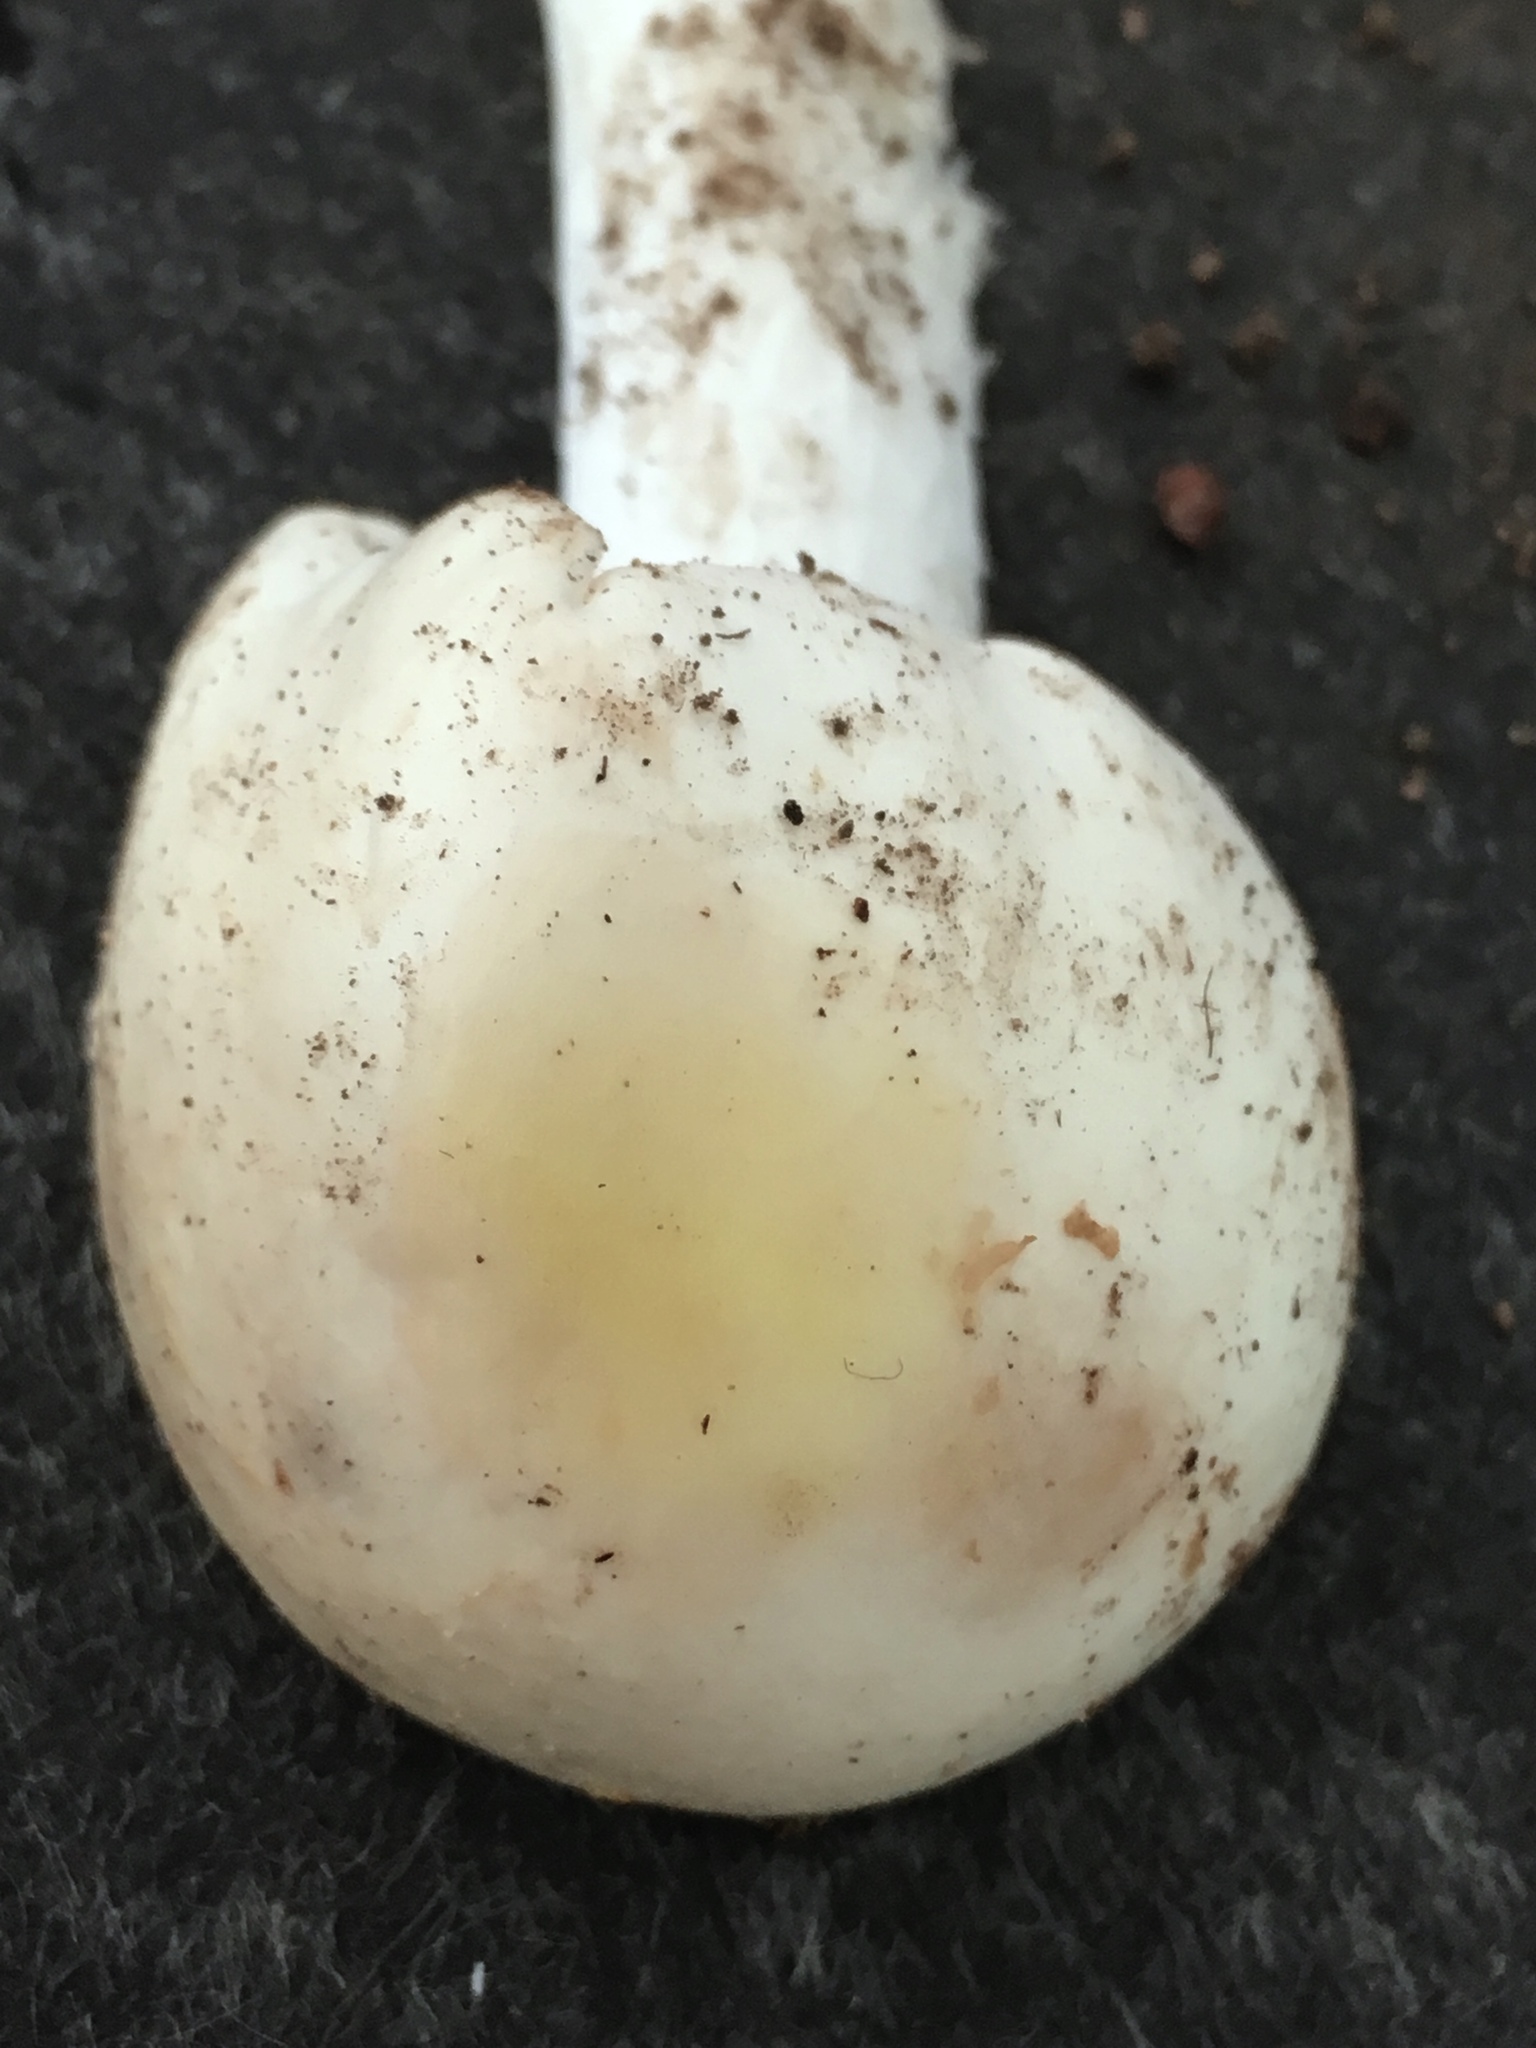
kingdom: Fungi
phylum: Basidiomycota
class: Agaricomycetes
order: Agaricales
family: Amanitaceae
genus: Amanita
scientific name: Amanita bisporigera
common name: Eastern north american destroying angel
